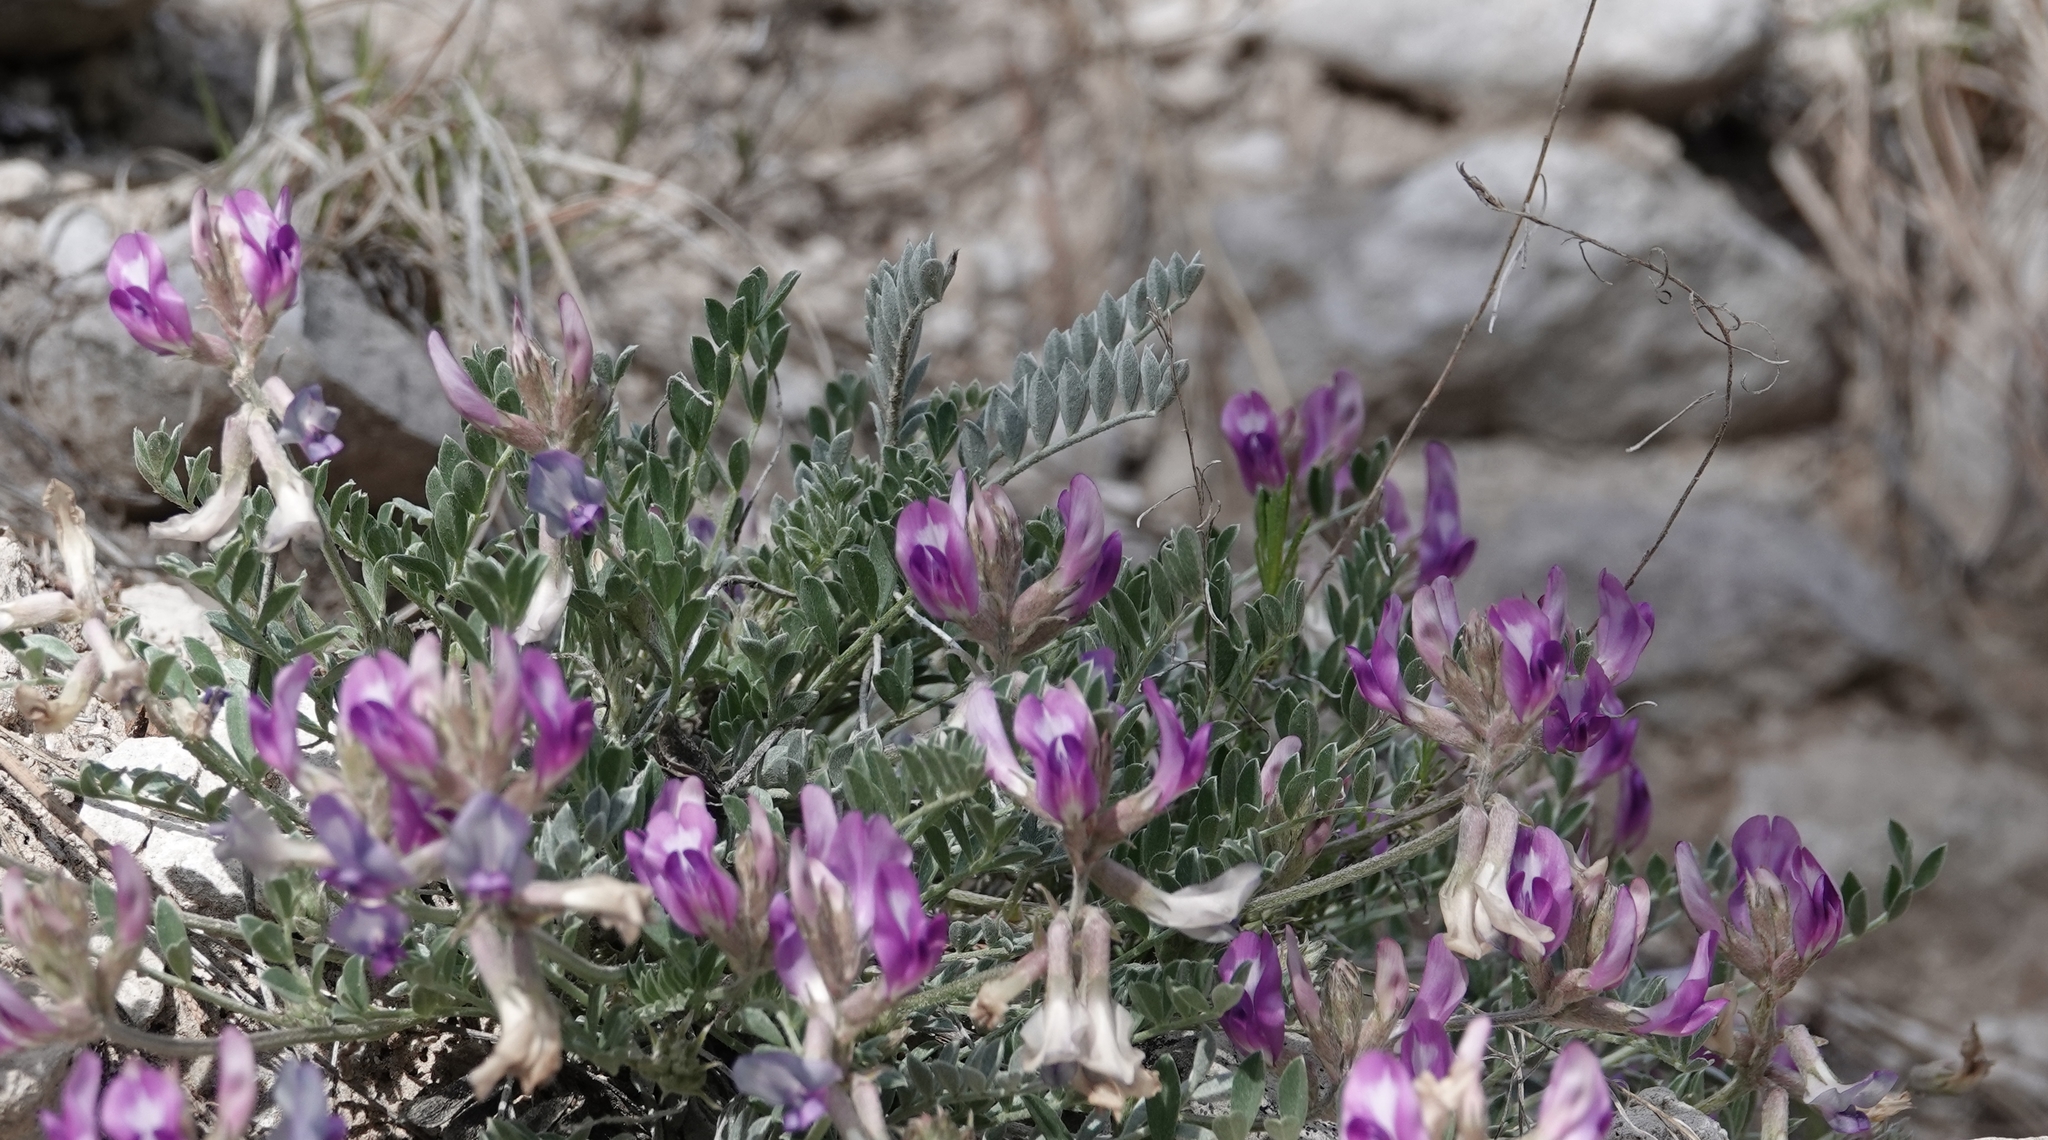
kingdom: Plantae
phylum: Tracheophyta
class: Magnoliopsida
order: Fabales
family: Fabaceae
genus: Astragalus
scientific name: Astragalus missouriensis
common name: Missouri milk-vetch
